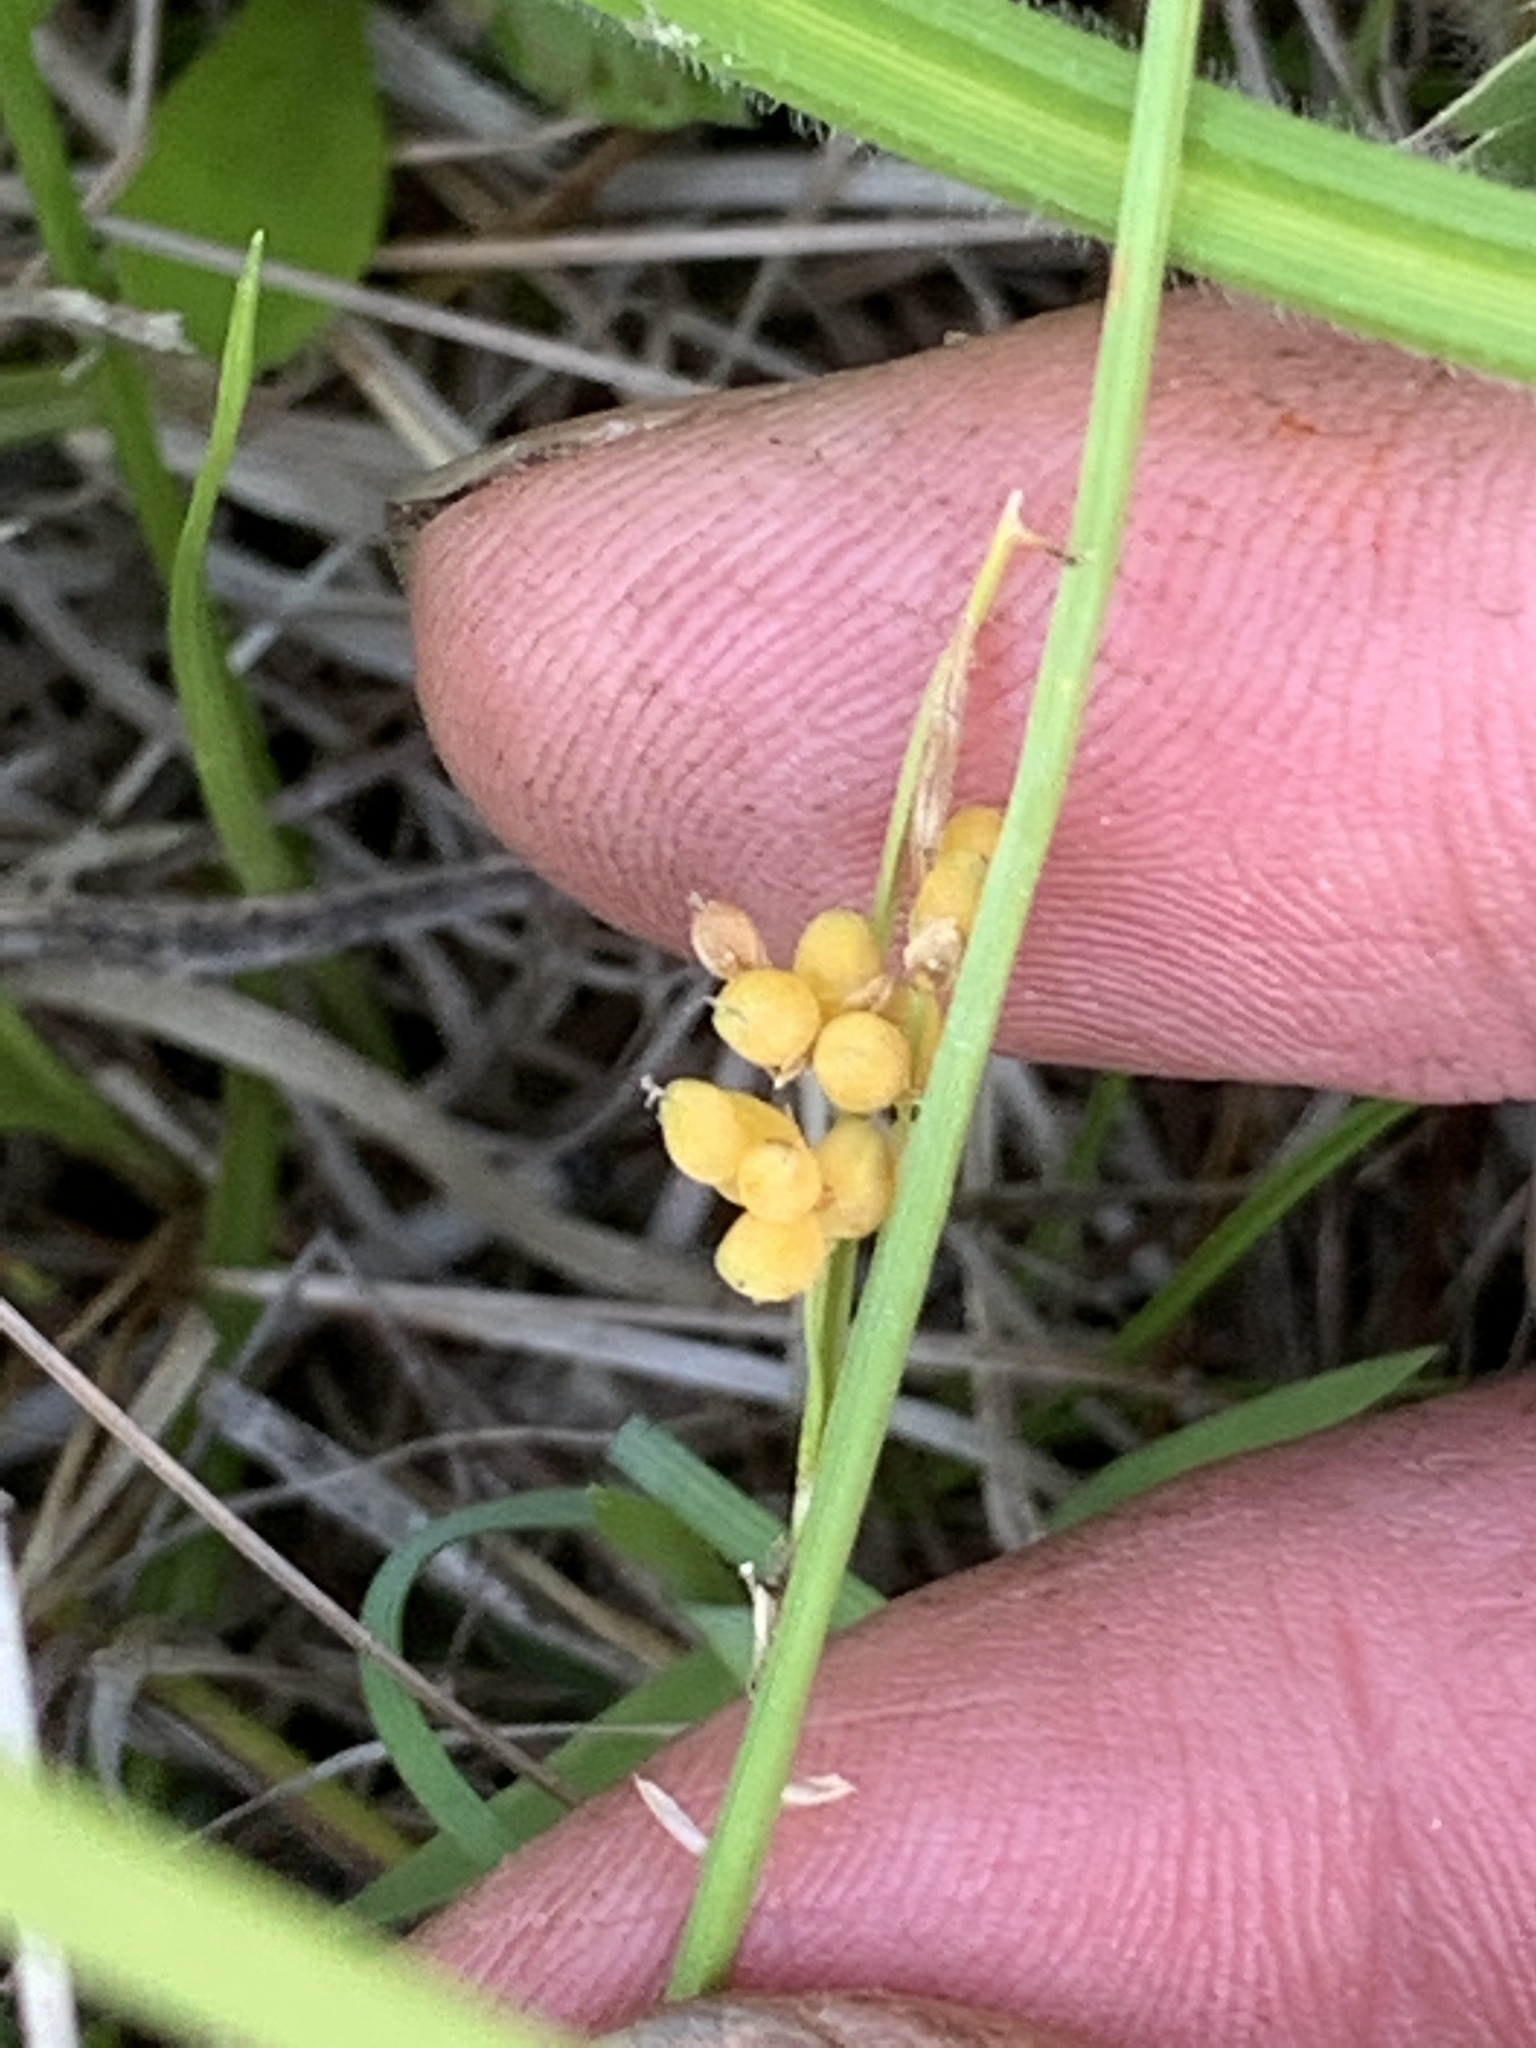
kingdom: Plantae
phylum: Tracheophyta
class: Liliopsida
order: Poales
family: Cyperaceae
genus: Carex
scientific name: Carex aurea
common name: Golden sedge
